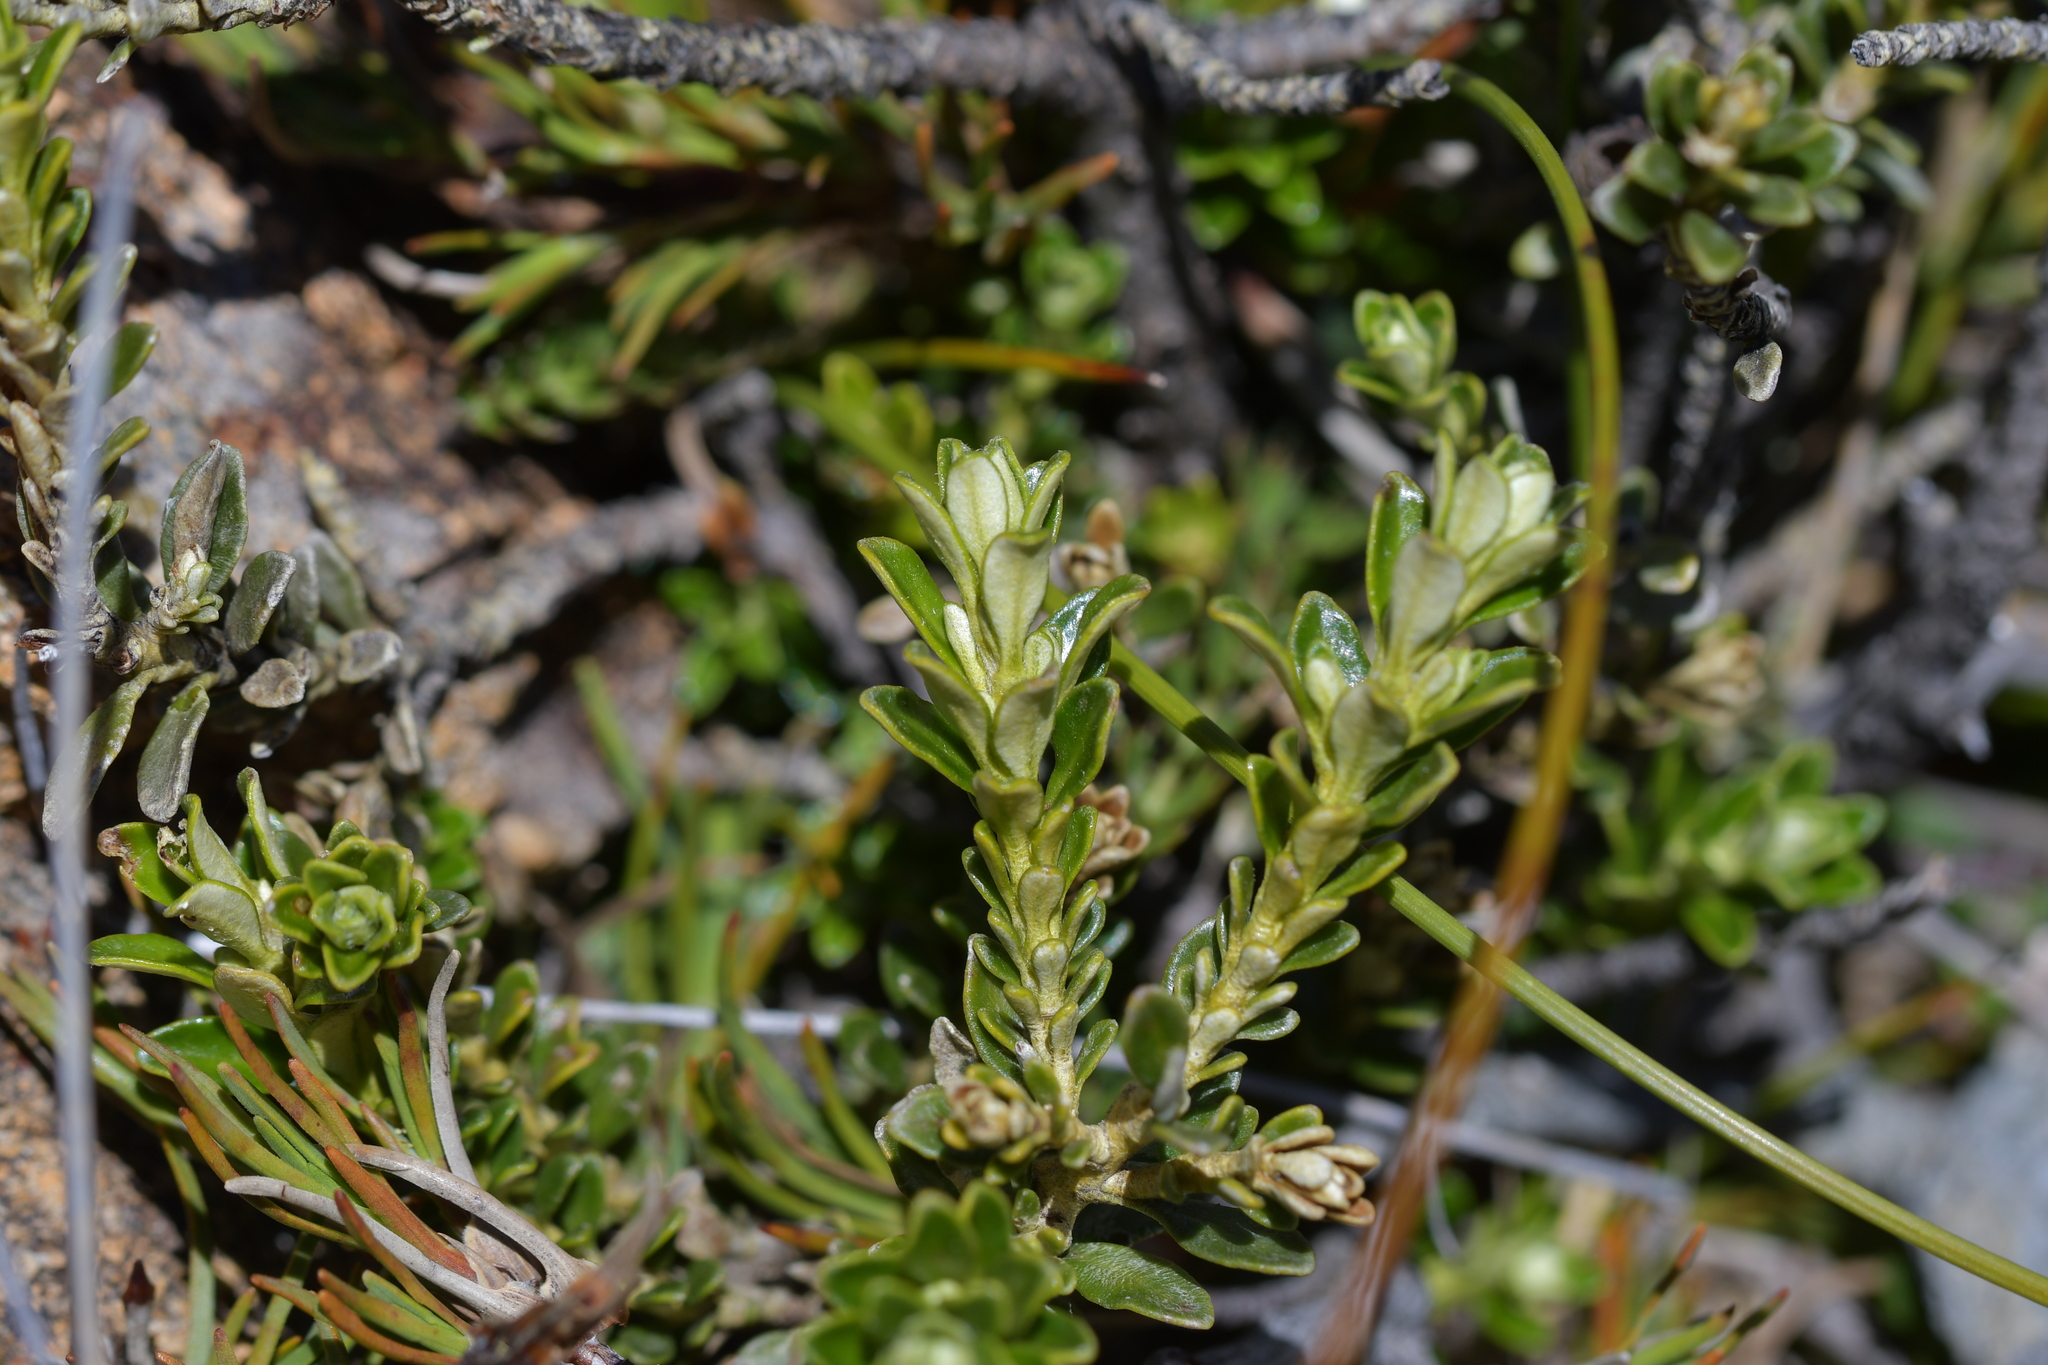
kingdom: Plantae
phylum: Tracheophyta
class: Magnoliopsida
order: Asterales
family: Asteraceae
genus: Ozothamnus
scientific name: Ozothamnus leptophyllus
